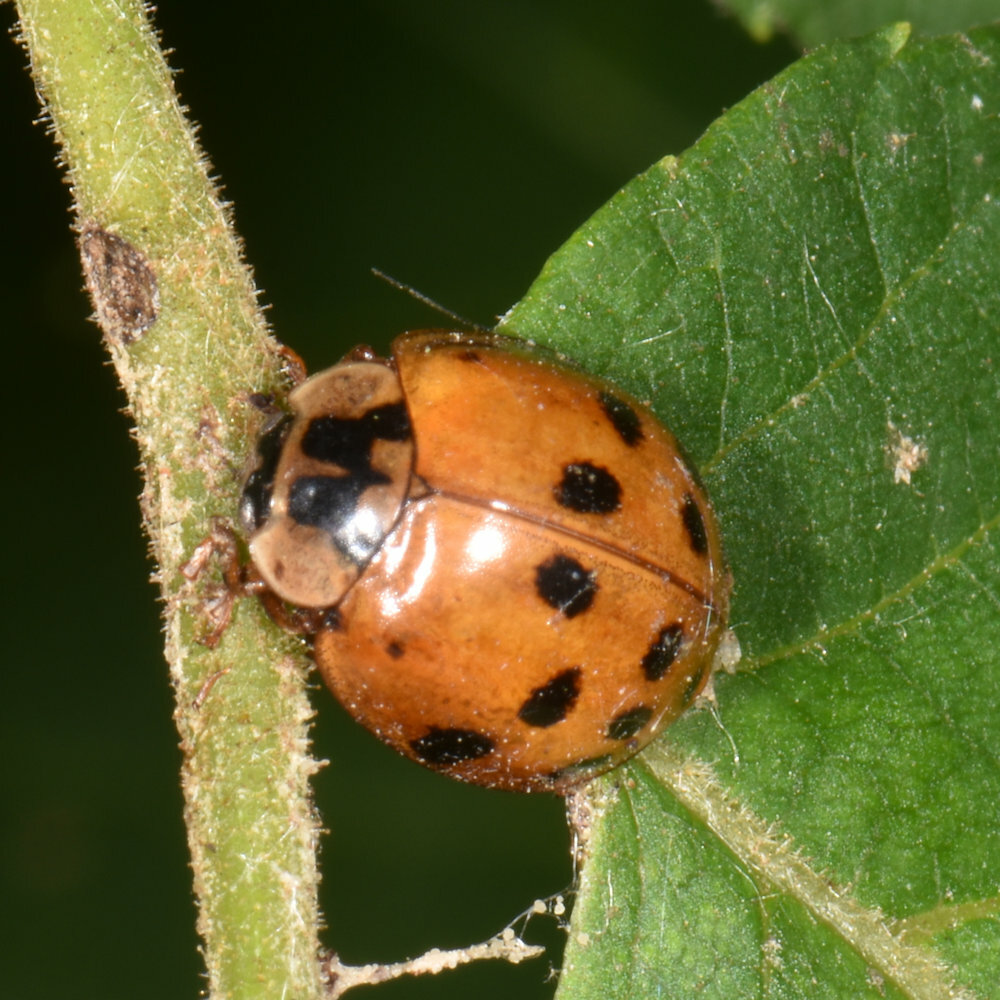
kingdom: Animalia
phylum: Arthropoda
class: Insecta
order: Coleoptera
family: Coccinellidae
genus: Harmonia
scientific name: Harmonia axyridis
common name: Harlequin ladybird
